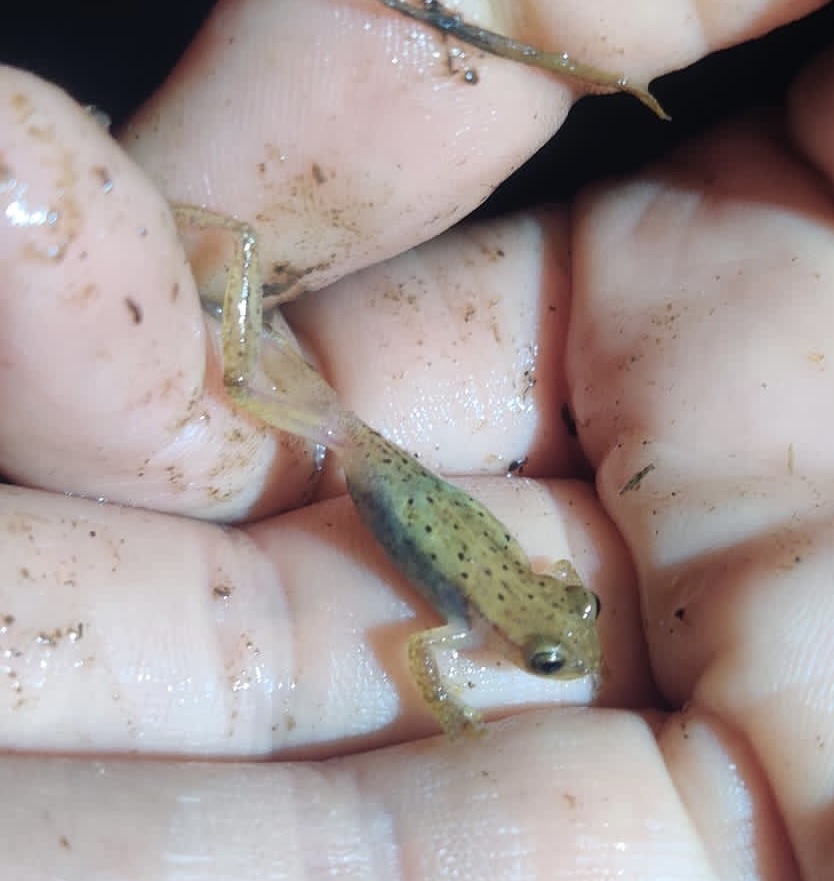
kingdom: Animalia
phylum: Chordata
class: Amphibia
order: Anura
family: Hylidae
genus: Dendropsophus
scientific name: Dendropsophus sanborni
